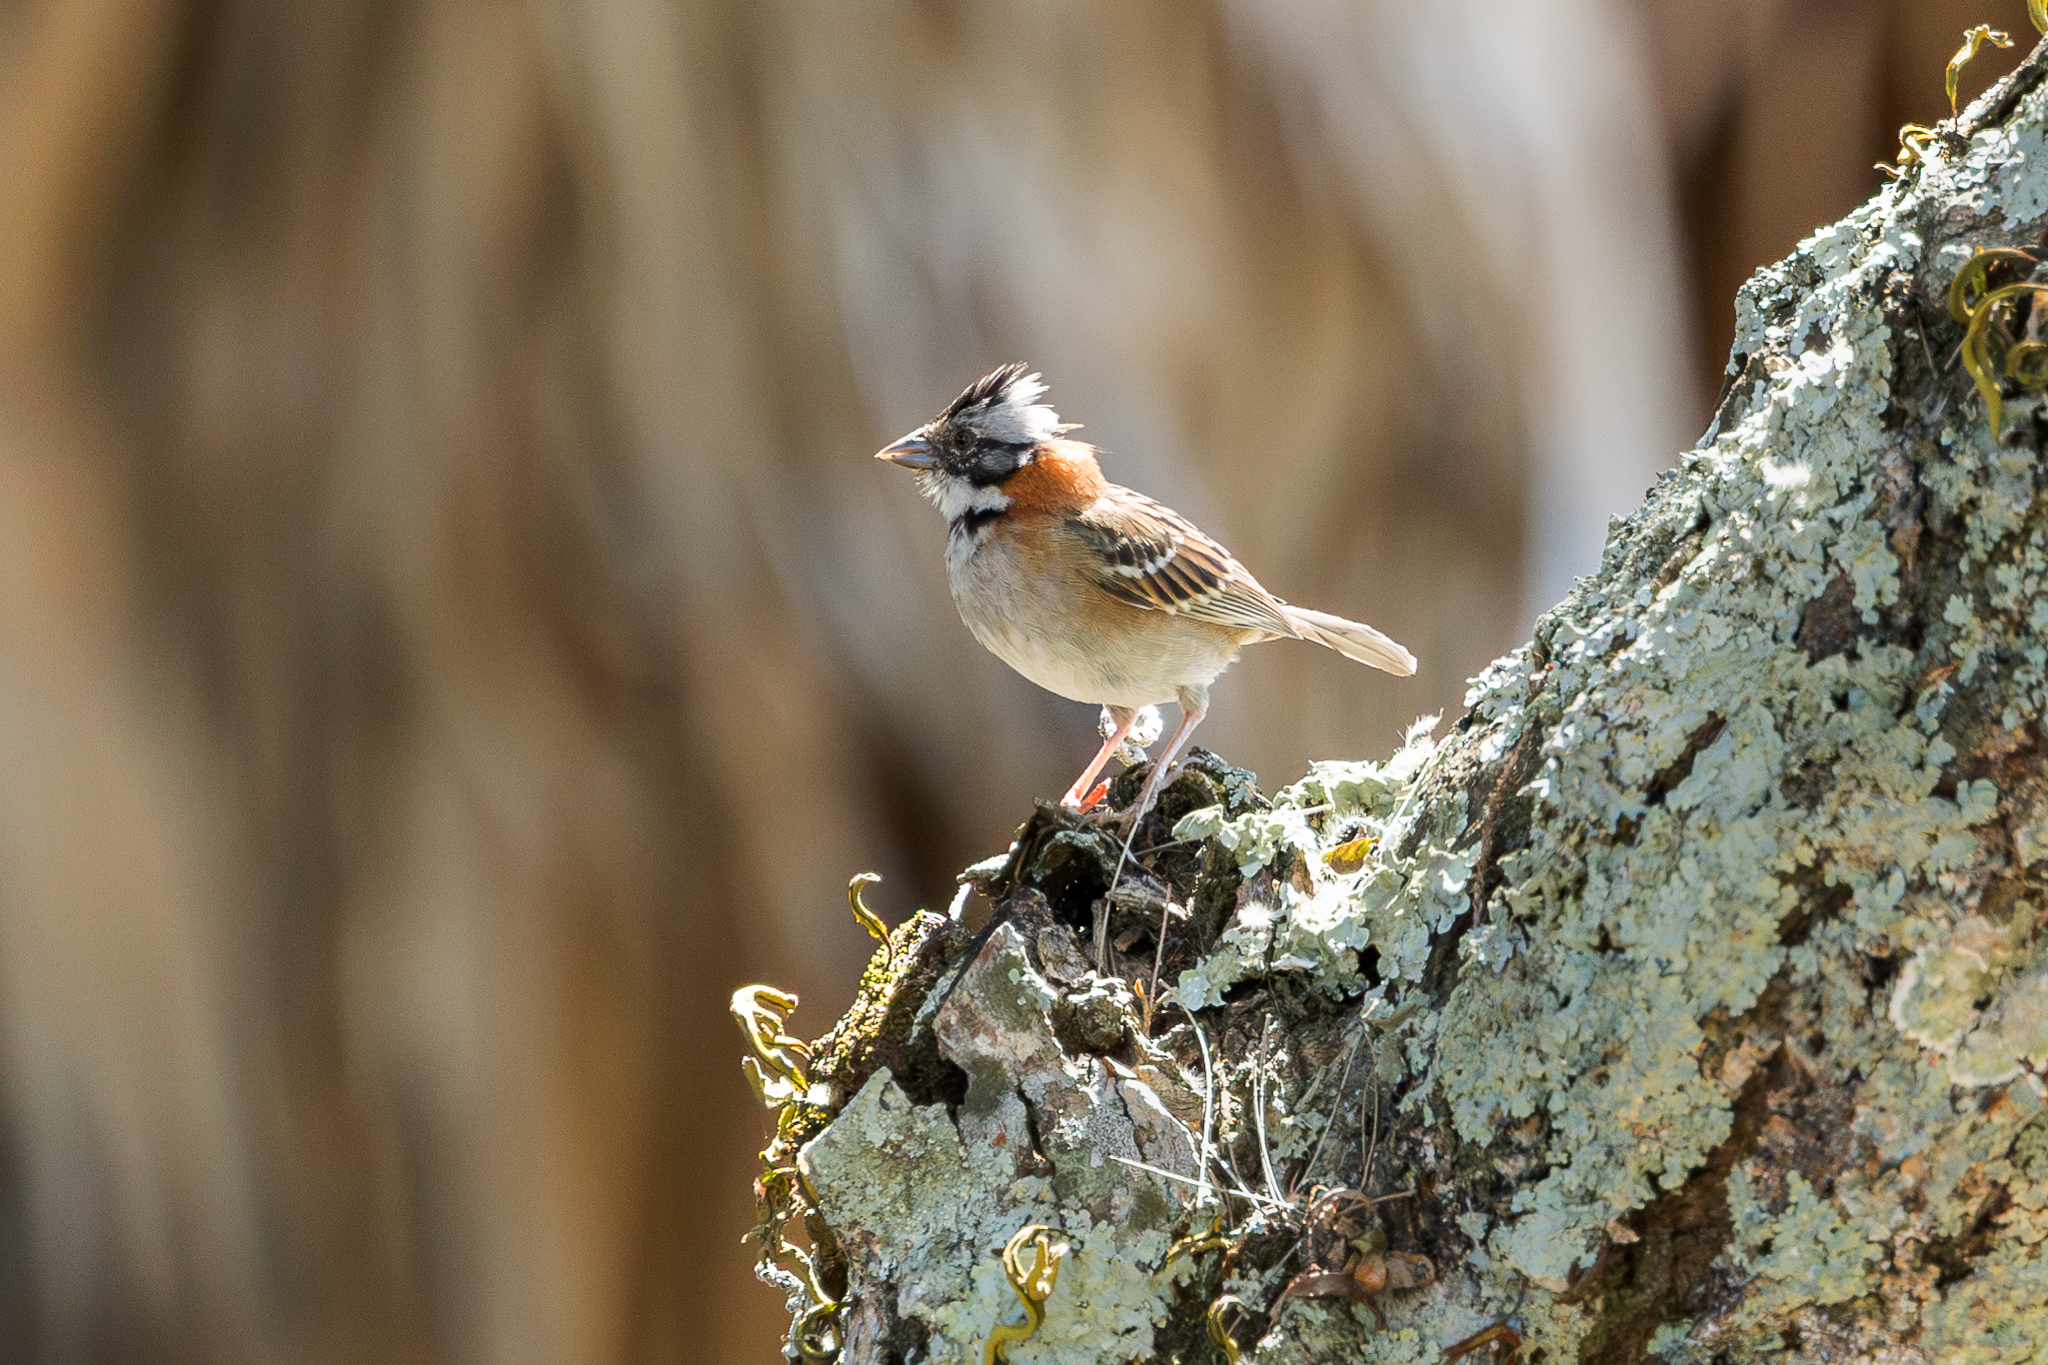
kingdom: Animalia
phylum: Chordata
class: Aves
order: Passeriformes
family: Passerellidae
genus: Zonotrichia
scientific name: Zonotrichia capensis
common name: Rufous-collared sparrow
